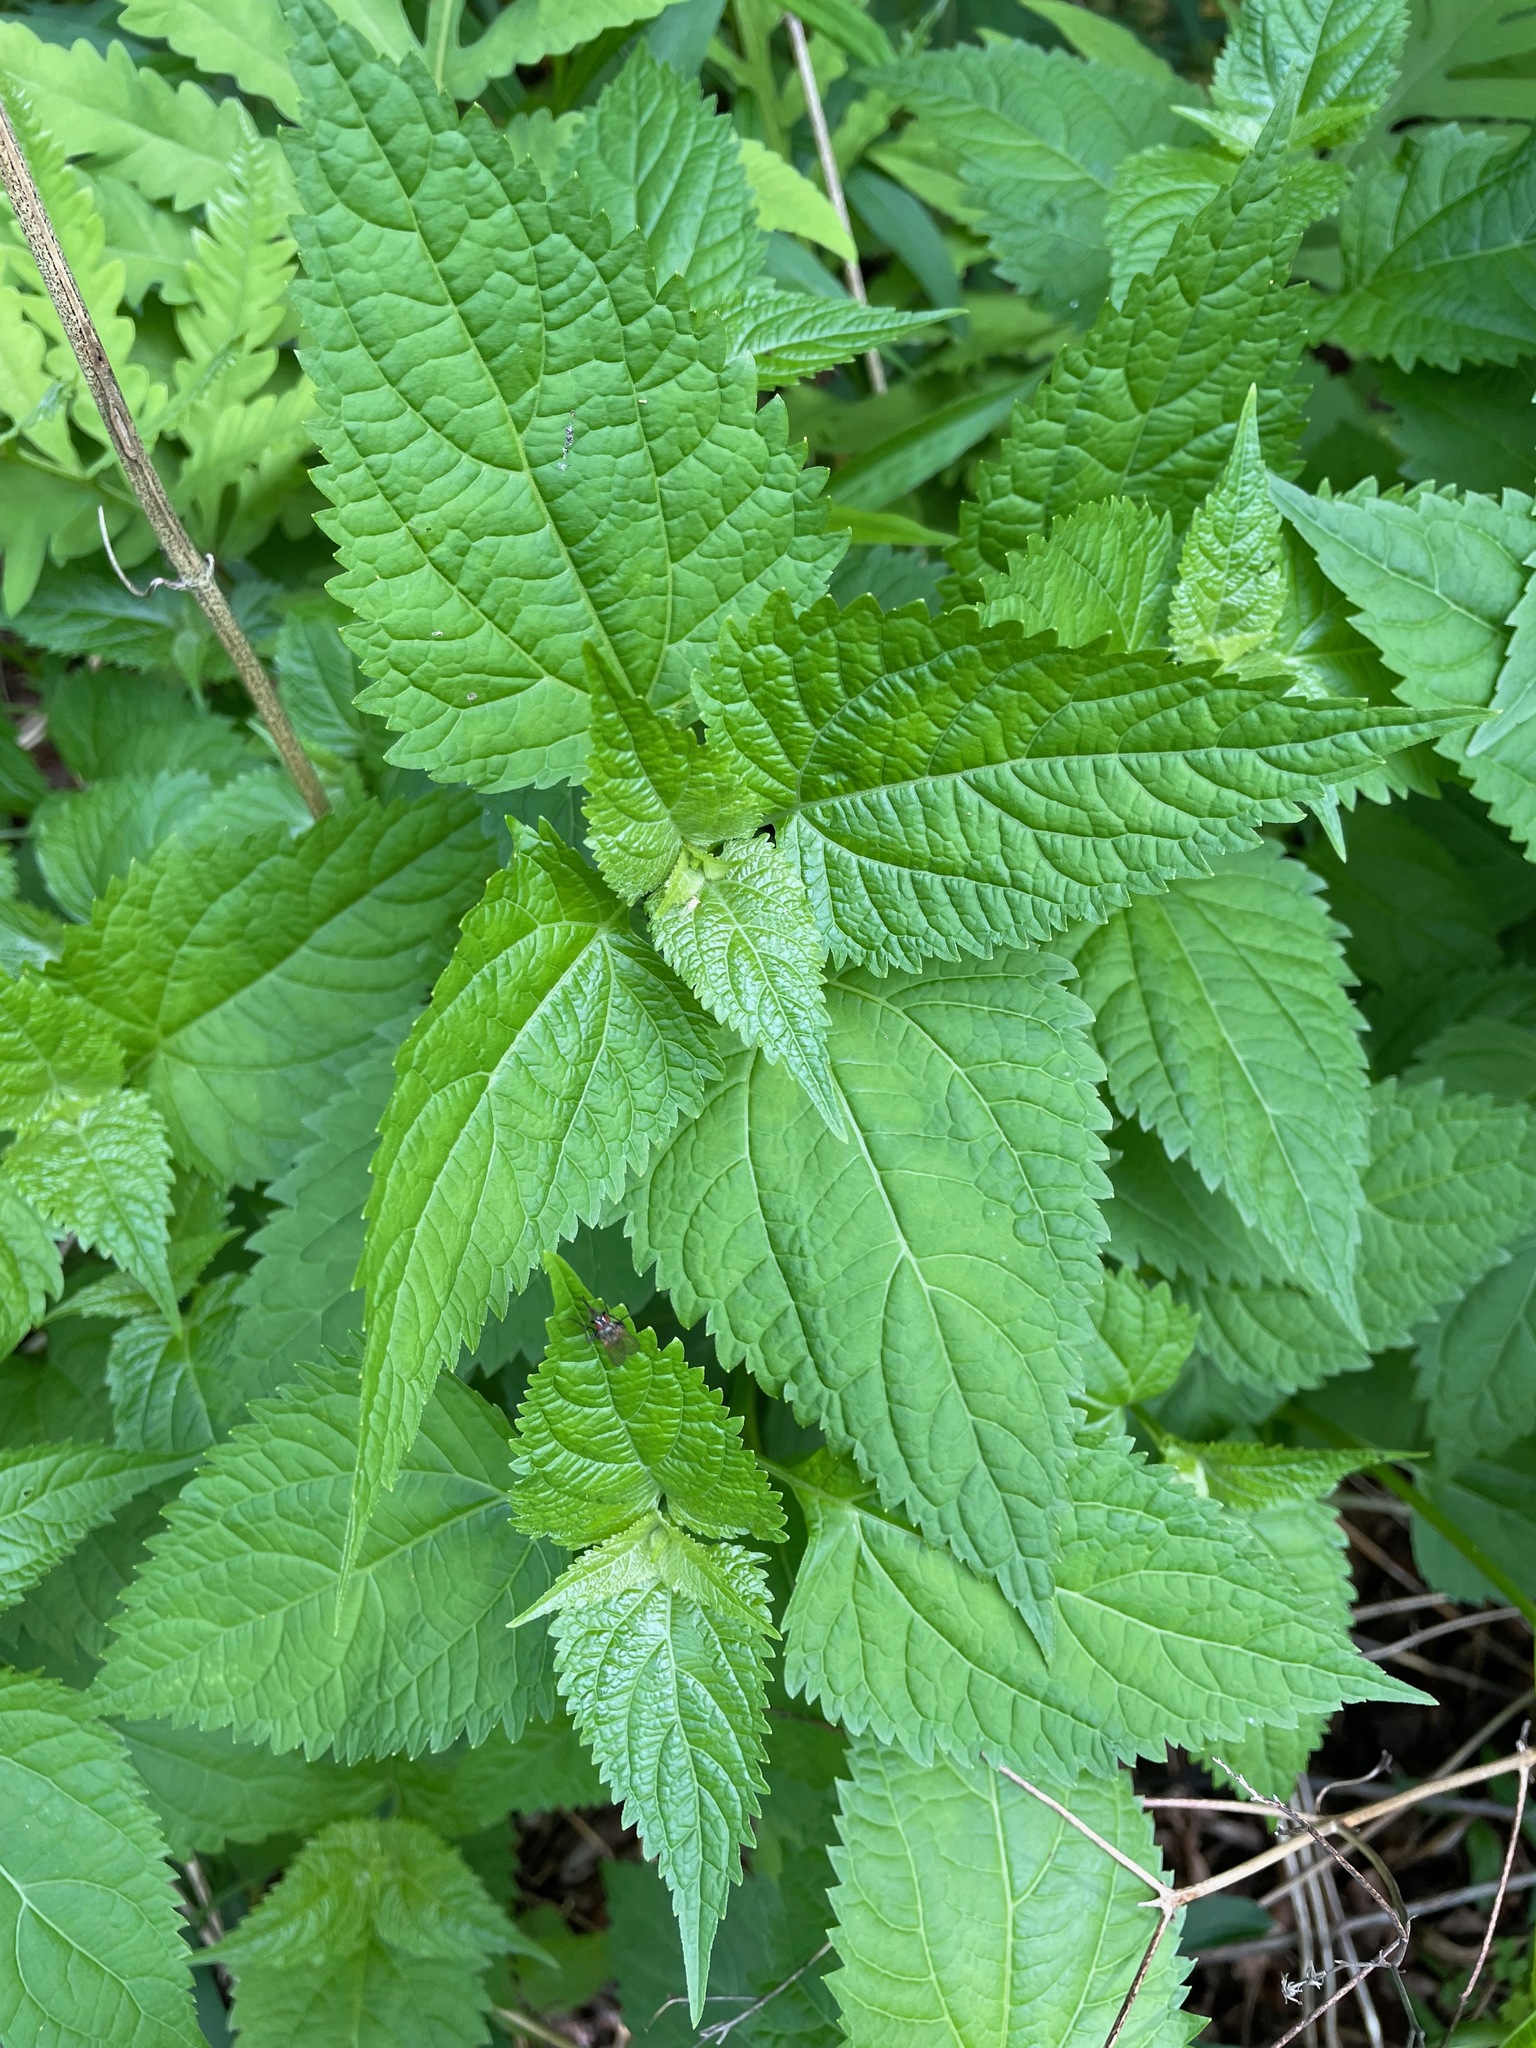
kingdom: Plantae
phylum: Tracheophyta
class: Magnoliopsida
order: Asterales
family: Asteraceae
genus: Ageratina
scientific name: Ageratina altissima
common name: White snakeroot
